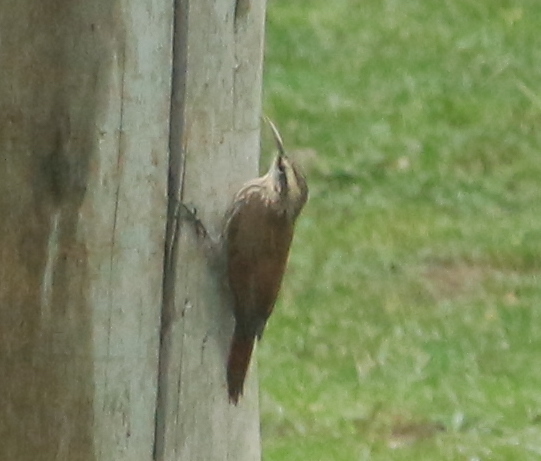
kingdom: Animalia
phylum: Chordata
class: Aves
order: Passeriformes
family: Furnariidae
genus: Lepidocolaptes
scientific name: Lepidocolaptes angustirostris
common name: Narrow-billed woodcreeper
